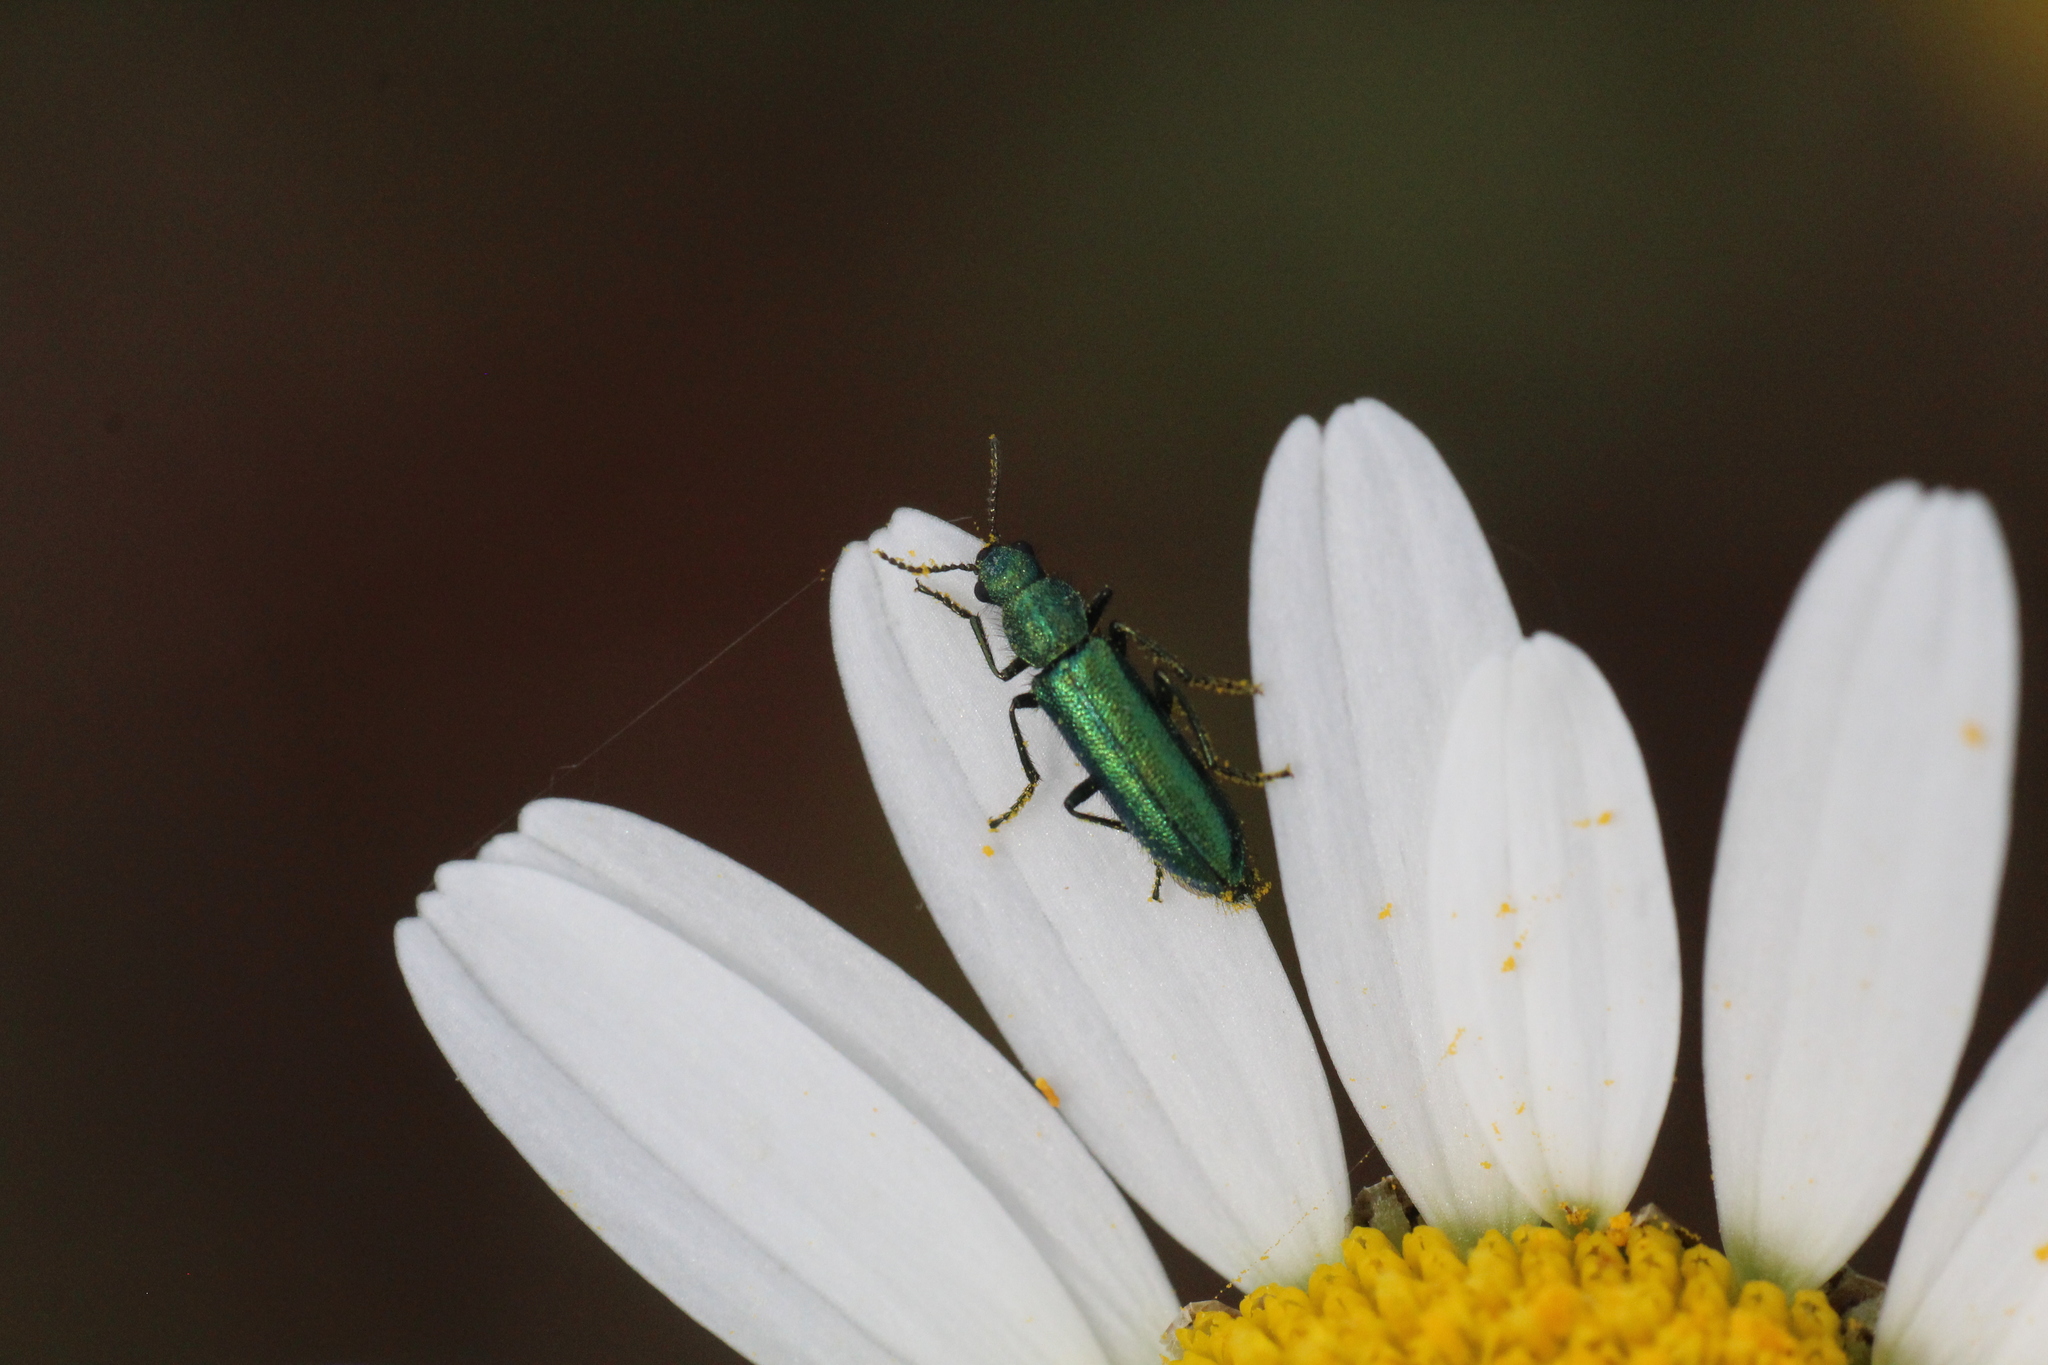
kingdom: Animalia
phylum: Arthropoda
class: Insecta
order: Coleoptera
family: Dasytidae
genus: Psilothrix
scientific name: Psilothrix viridicoerulea
